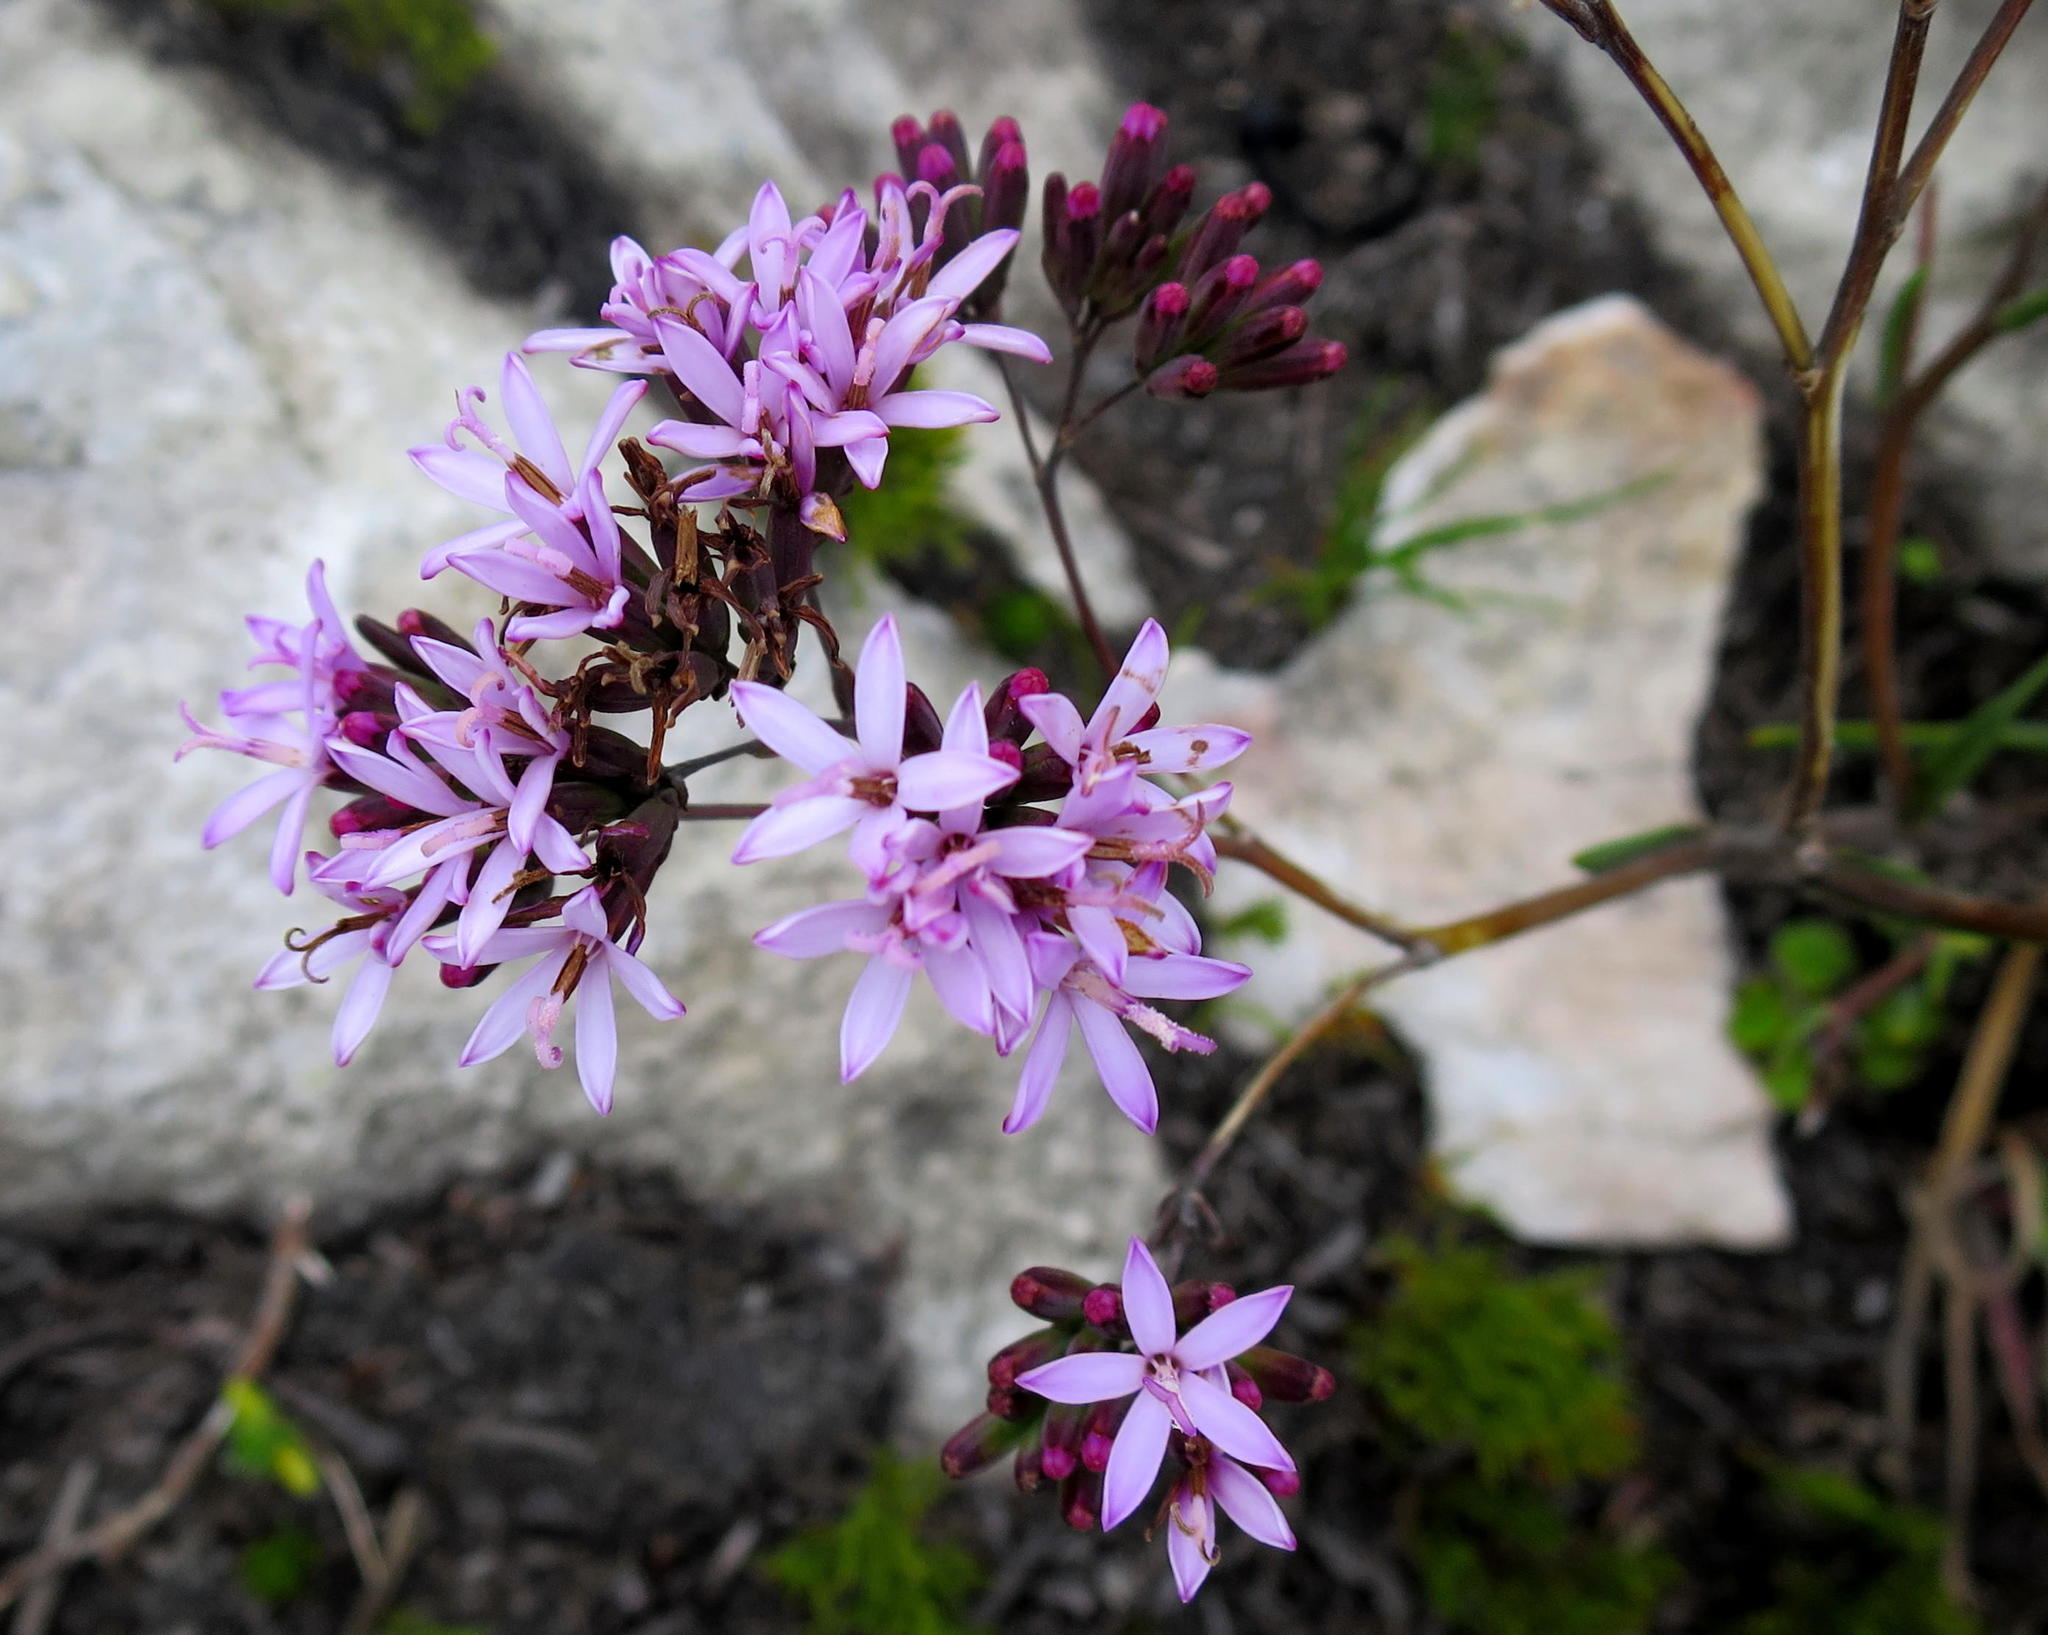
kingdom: Plantae
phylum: Tracheophyta
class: Magnoliopsida
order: Asterales
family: Asteraceae
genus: Corymbium
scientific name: Corymbium glabrum
